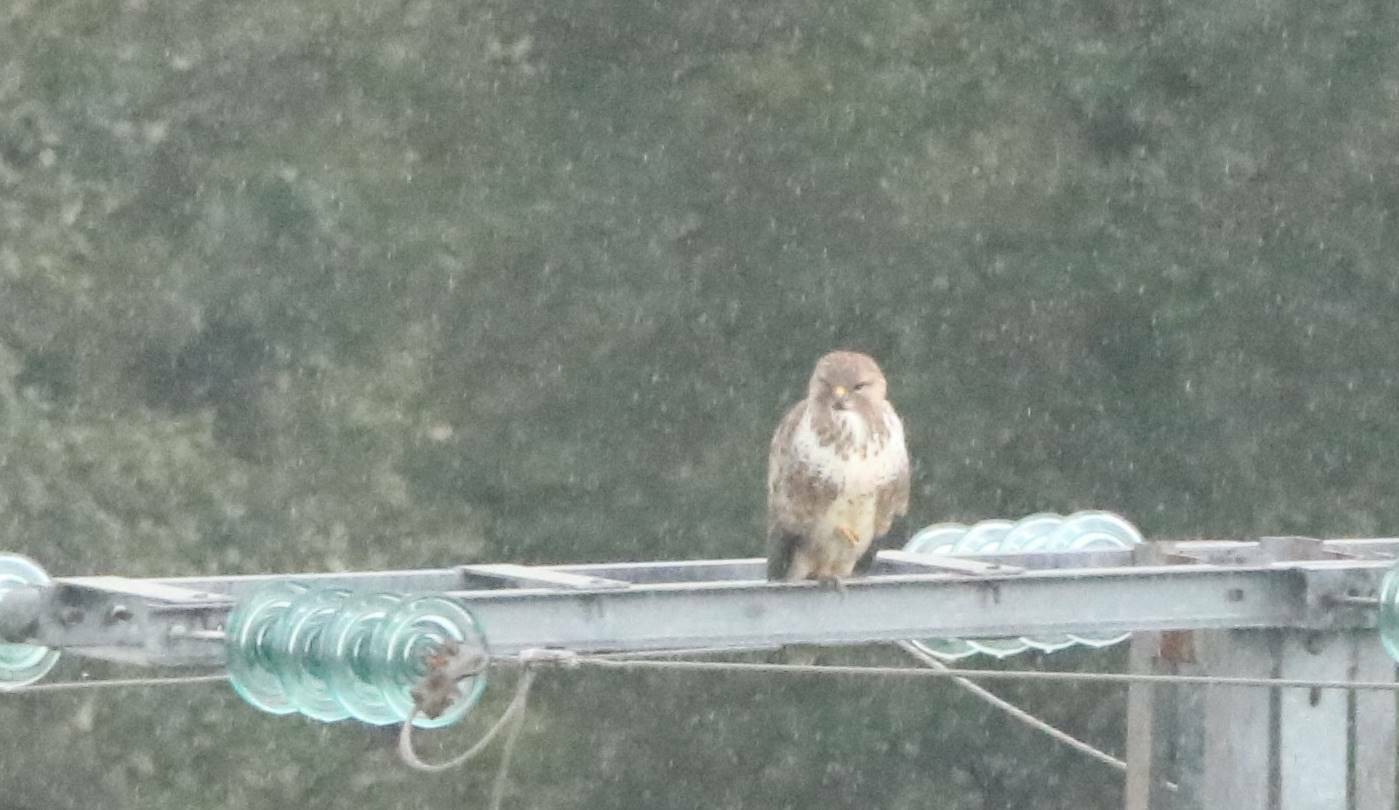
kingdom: Animalia
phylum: Chordata
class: Aves
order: Accipitriformes
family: Accipitridae
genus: Buteo
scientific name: Buteo buteo
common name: Common buzzard
